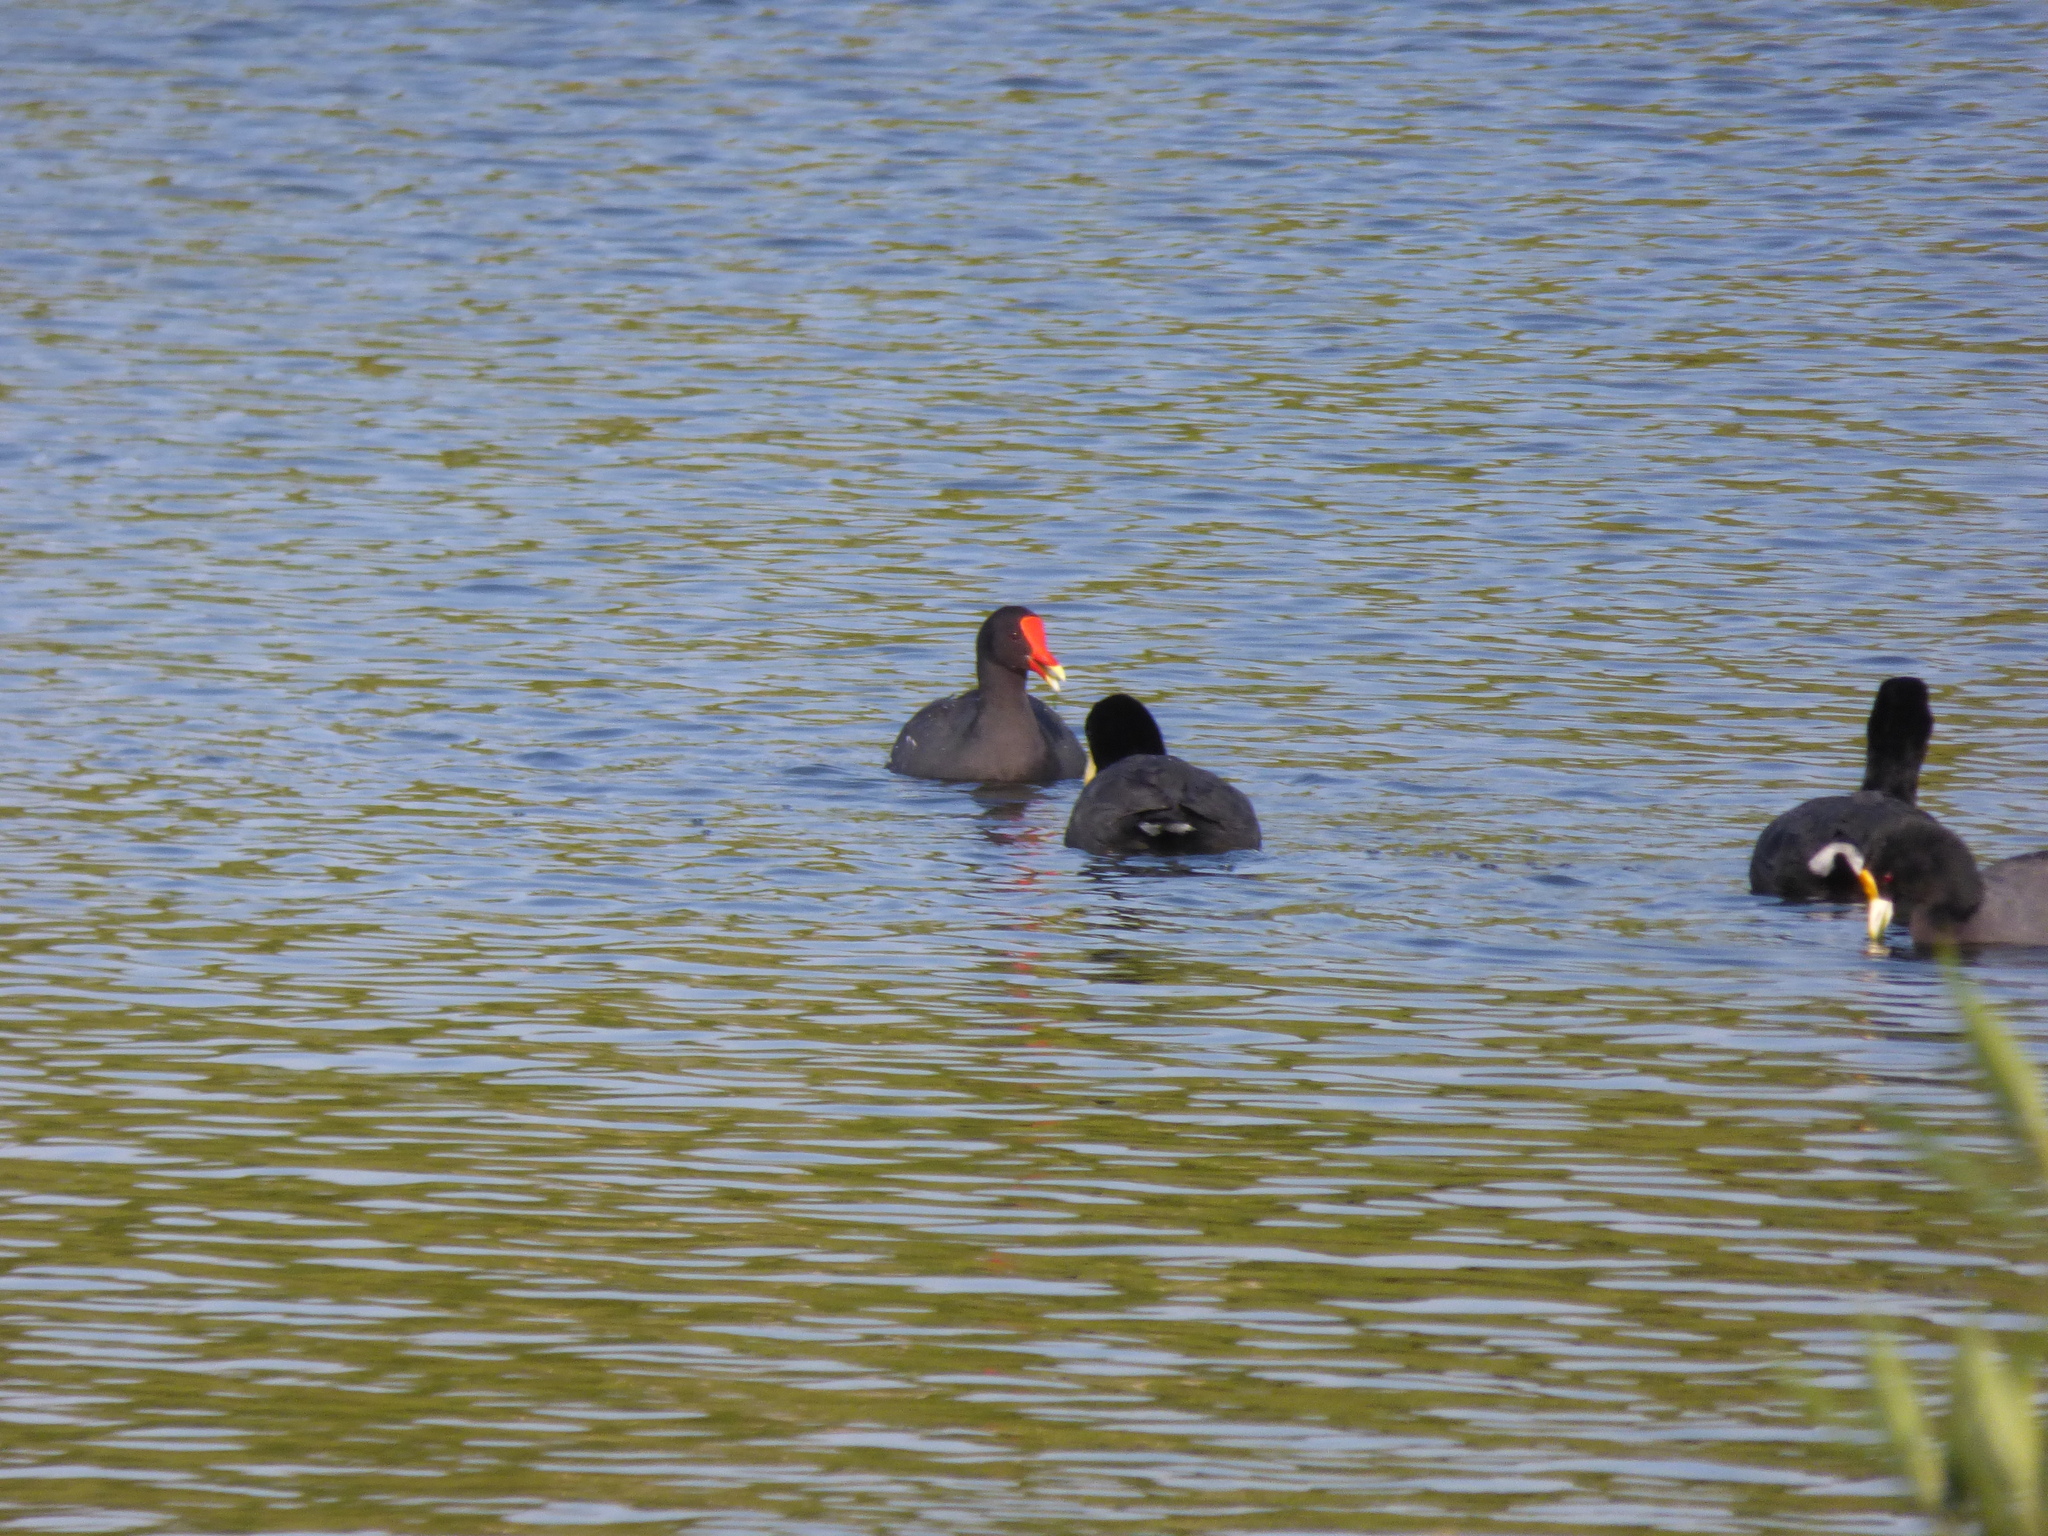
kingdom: Animalia
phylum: Chordata
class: Aves
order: Gruiformes
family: Rallidae
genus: Gallinula
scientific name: Gallinula chloropus
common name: Common moorhen
